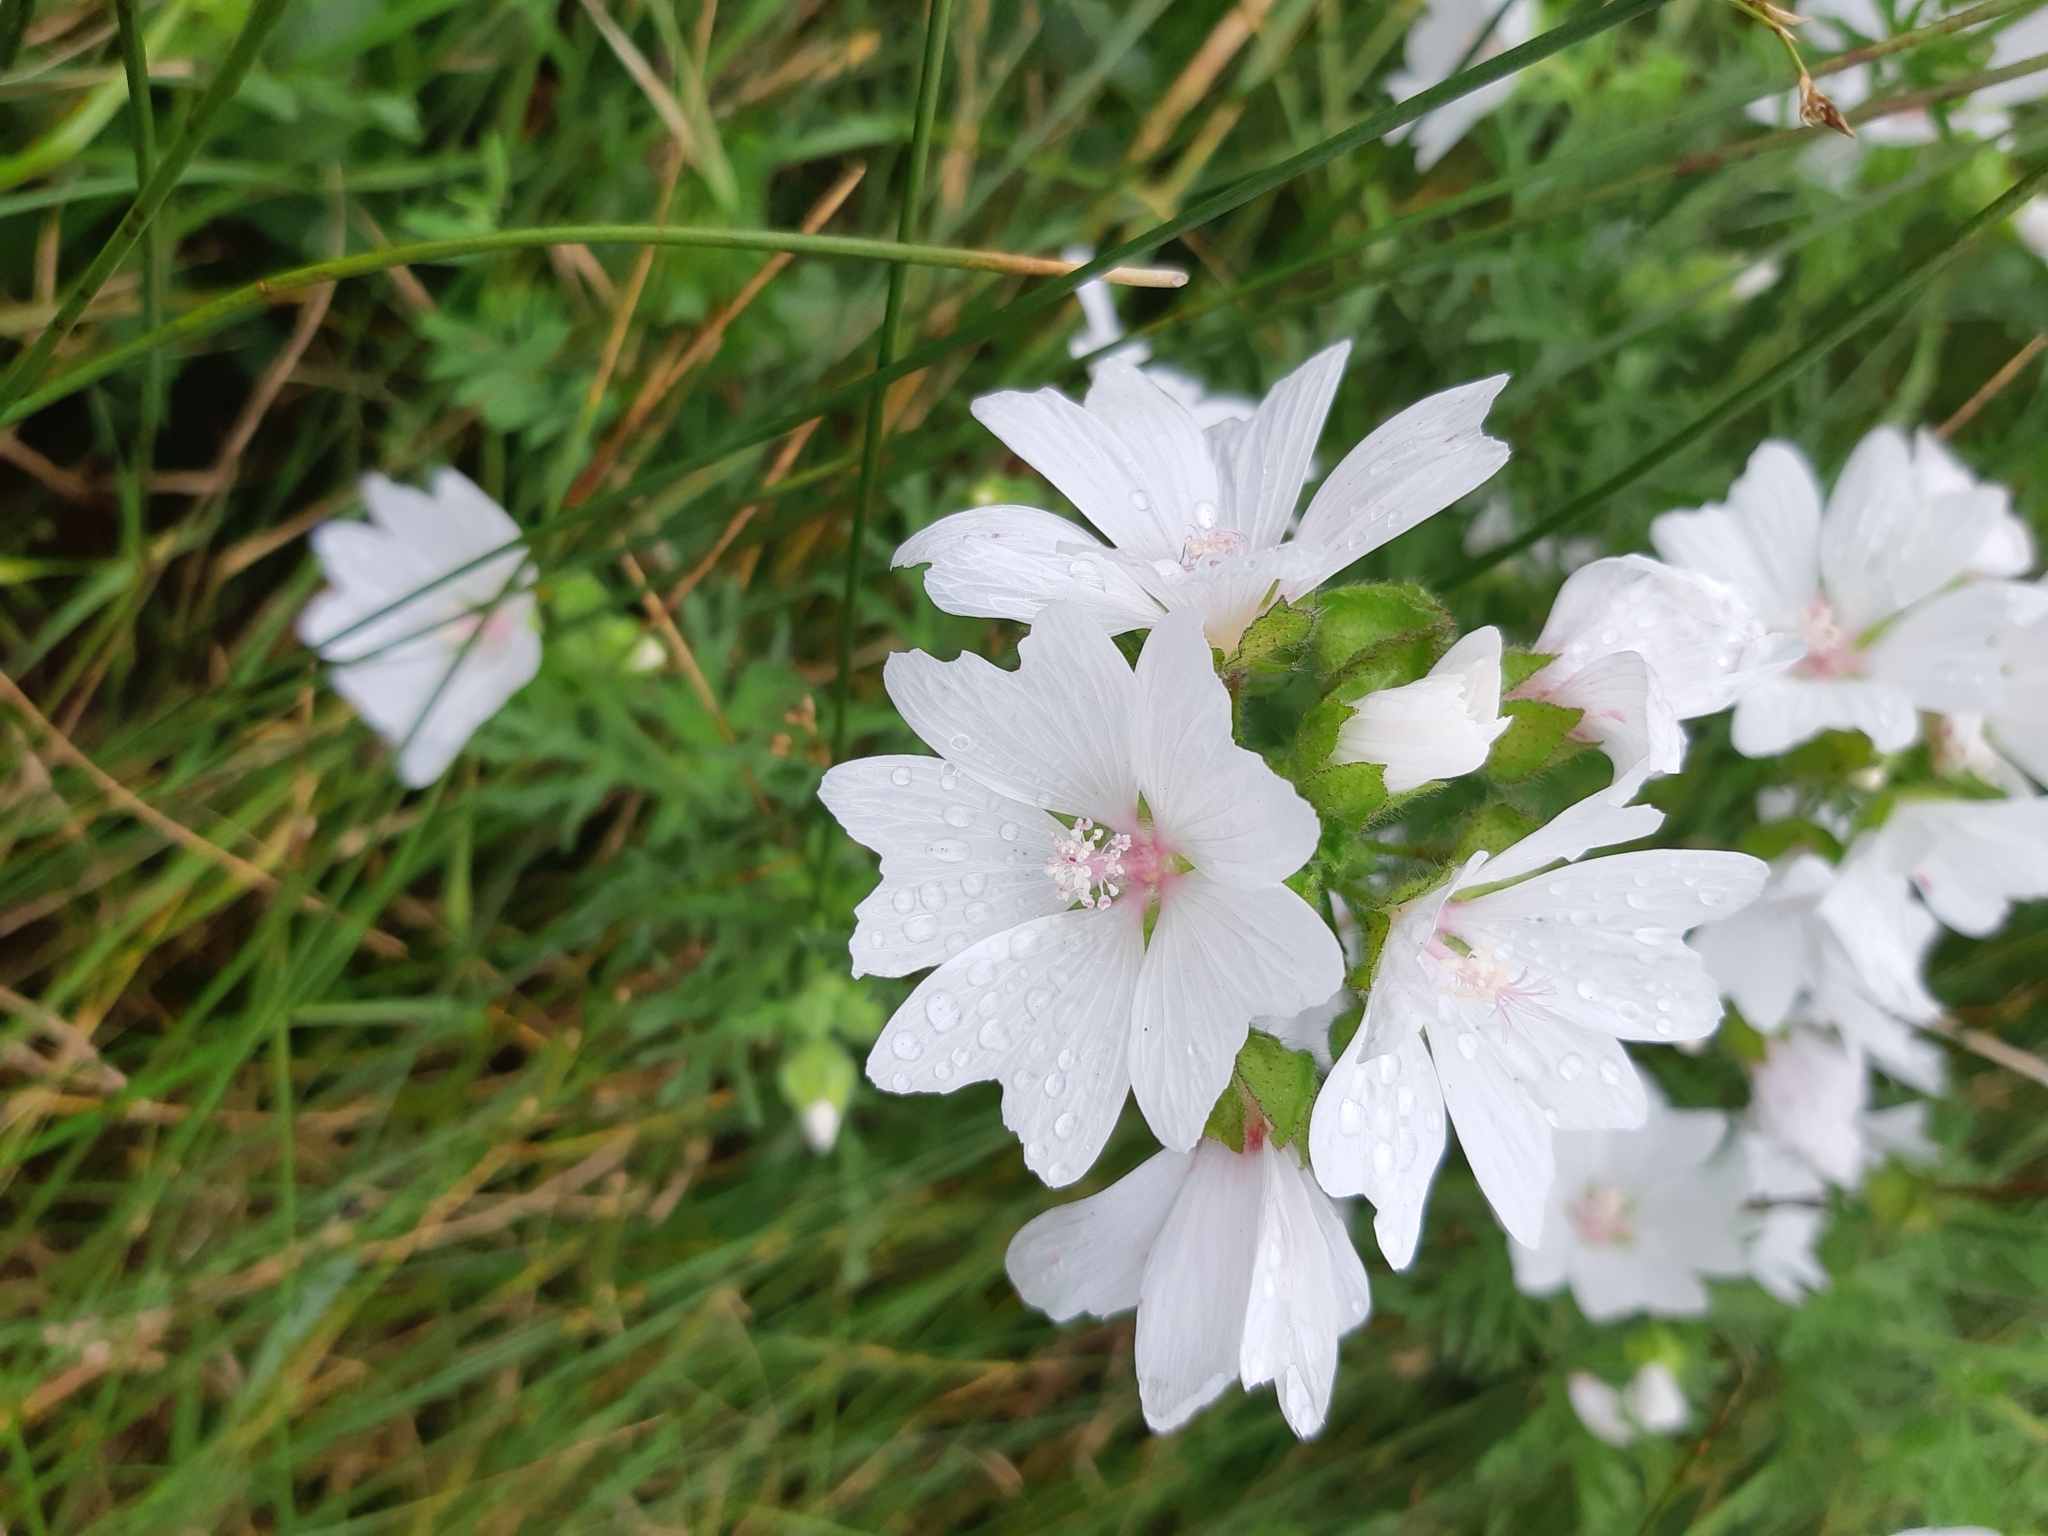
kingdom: Plantae
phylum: Tracheophyta
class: Magnoliopsida
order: Malvales
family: Malvaceae
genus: Malva
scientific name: Malva moschata
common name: Musk mallow
